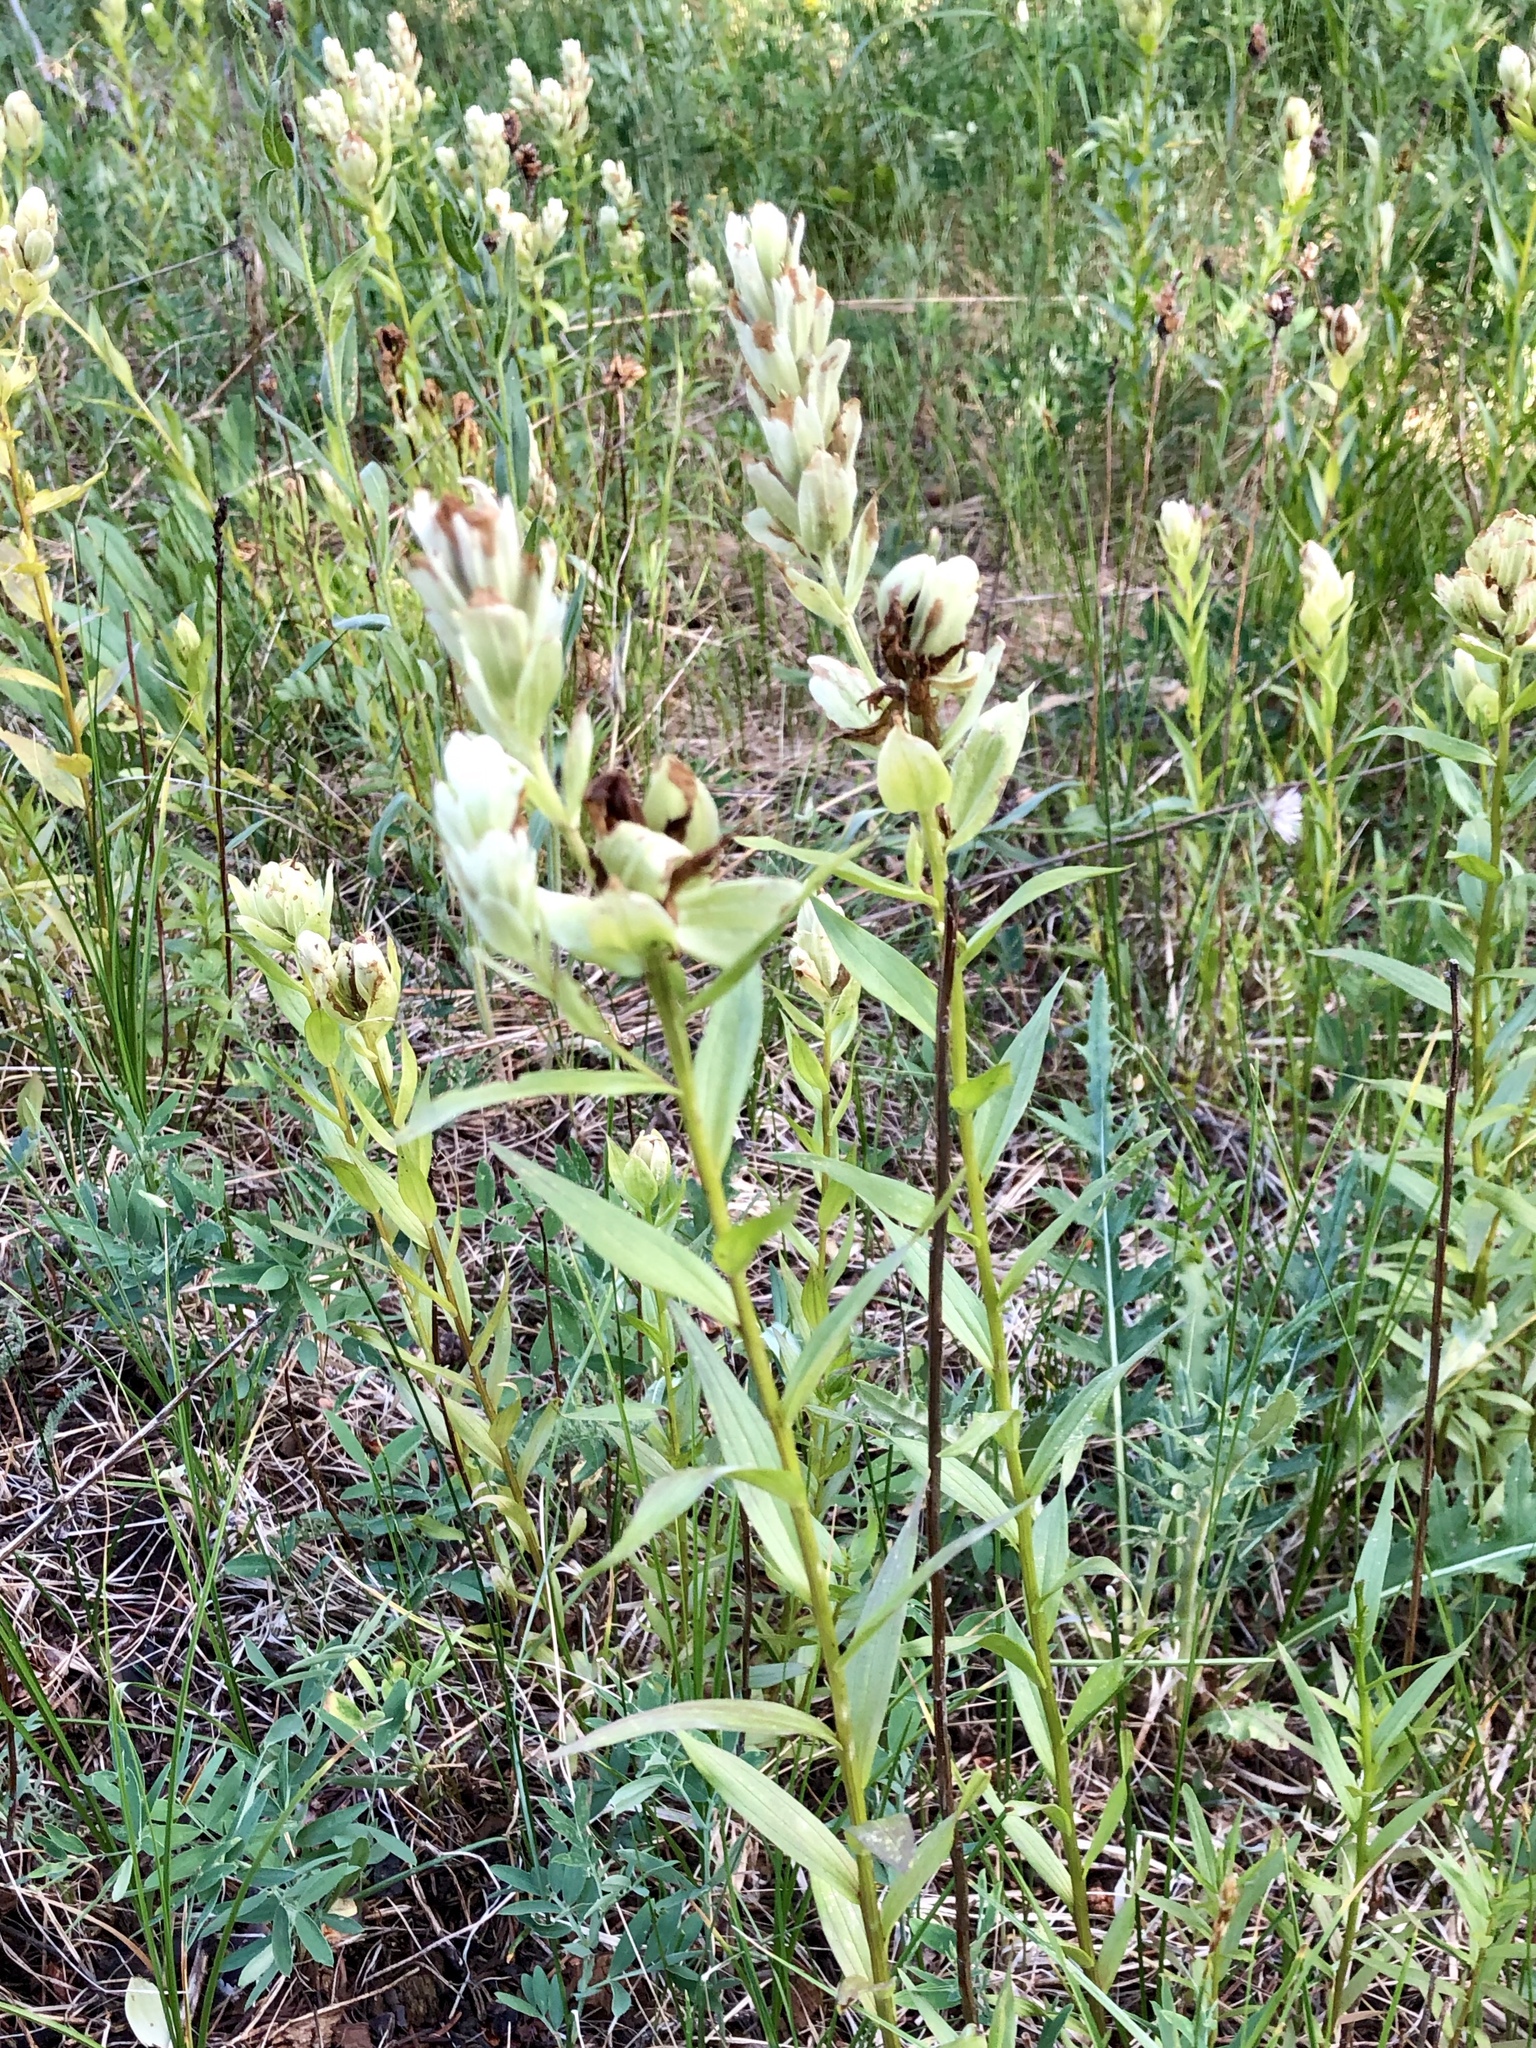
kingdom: Plantae
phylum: Tracheophyta
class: Magnoliopsida
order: Lamiales
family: Orobanchaceae
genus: Castilleja
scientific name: Castilleja septentrionalis
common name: Northeastern paintbrush
